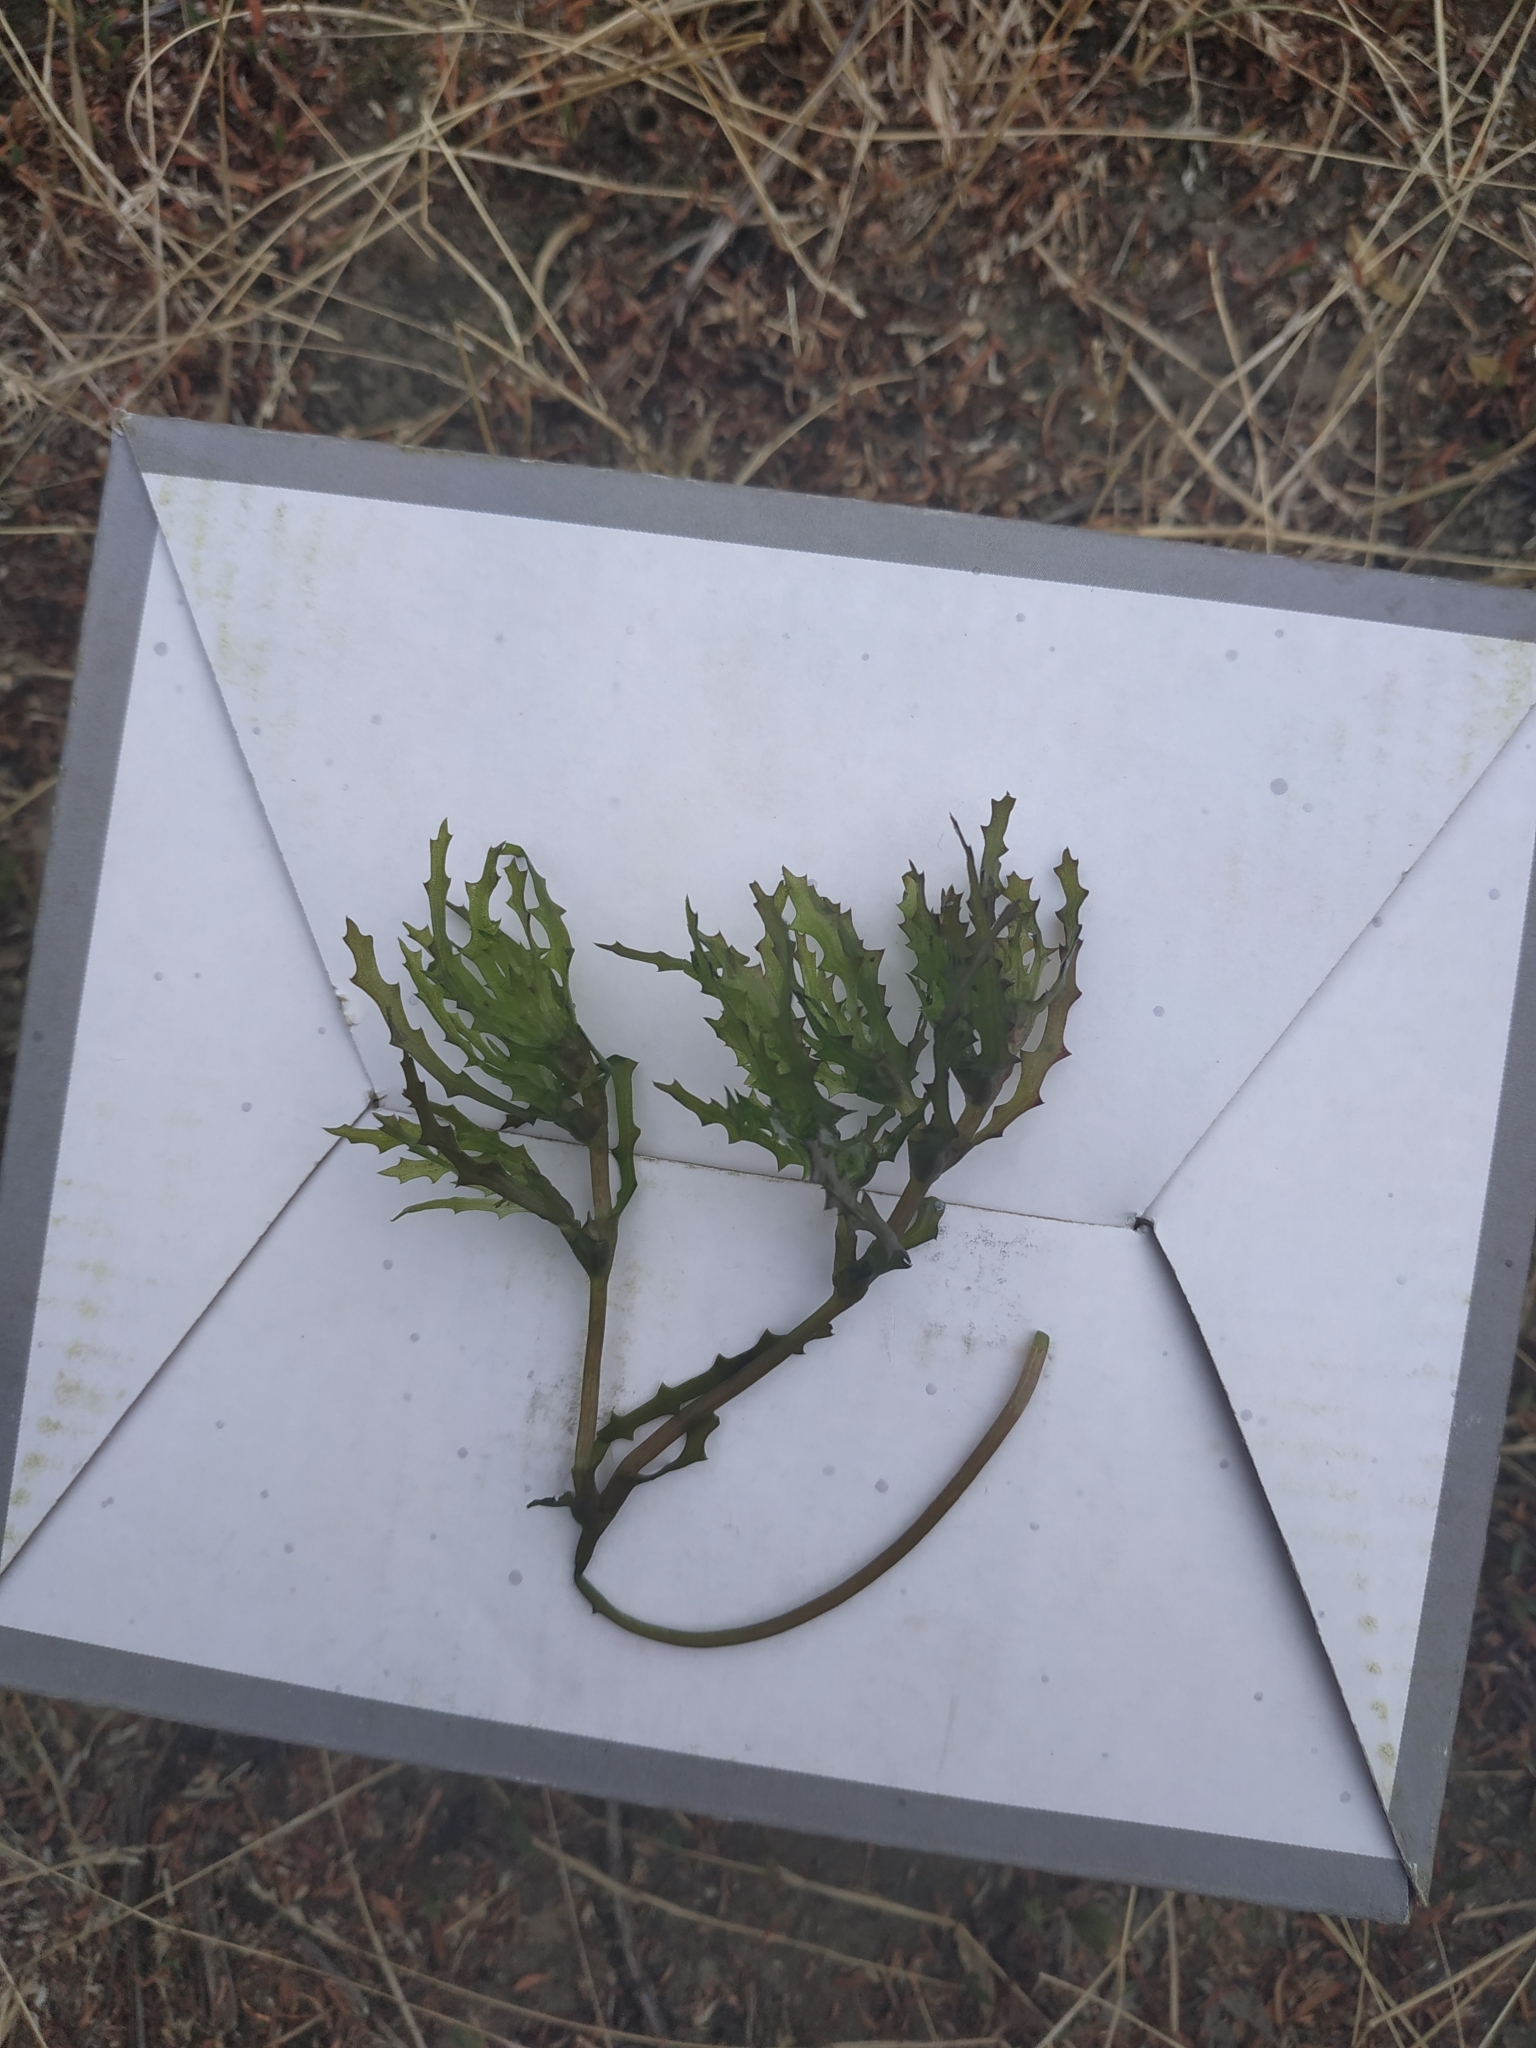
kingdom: Plantae
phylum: Tracheophyta
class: Liliopsida
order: Alismatales
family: Hydrocharitaceae
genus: Najas
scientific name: Najas marina
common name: Holly-leaved naiad
